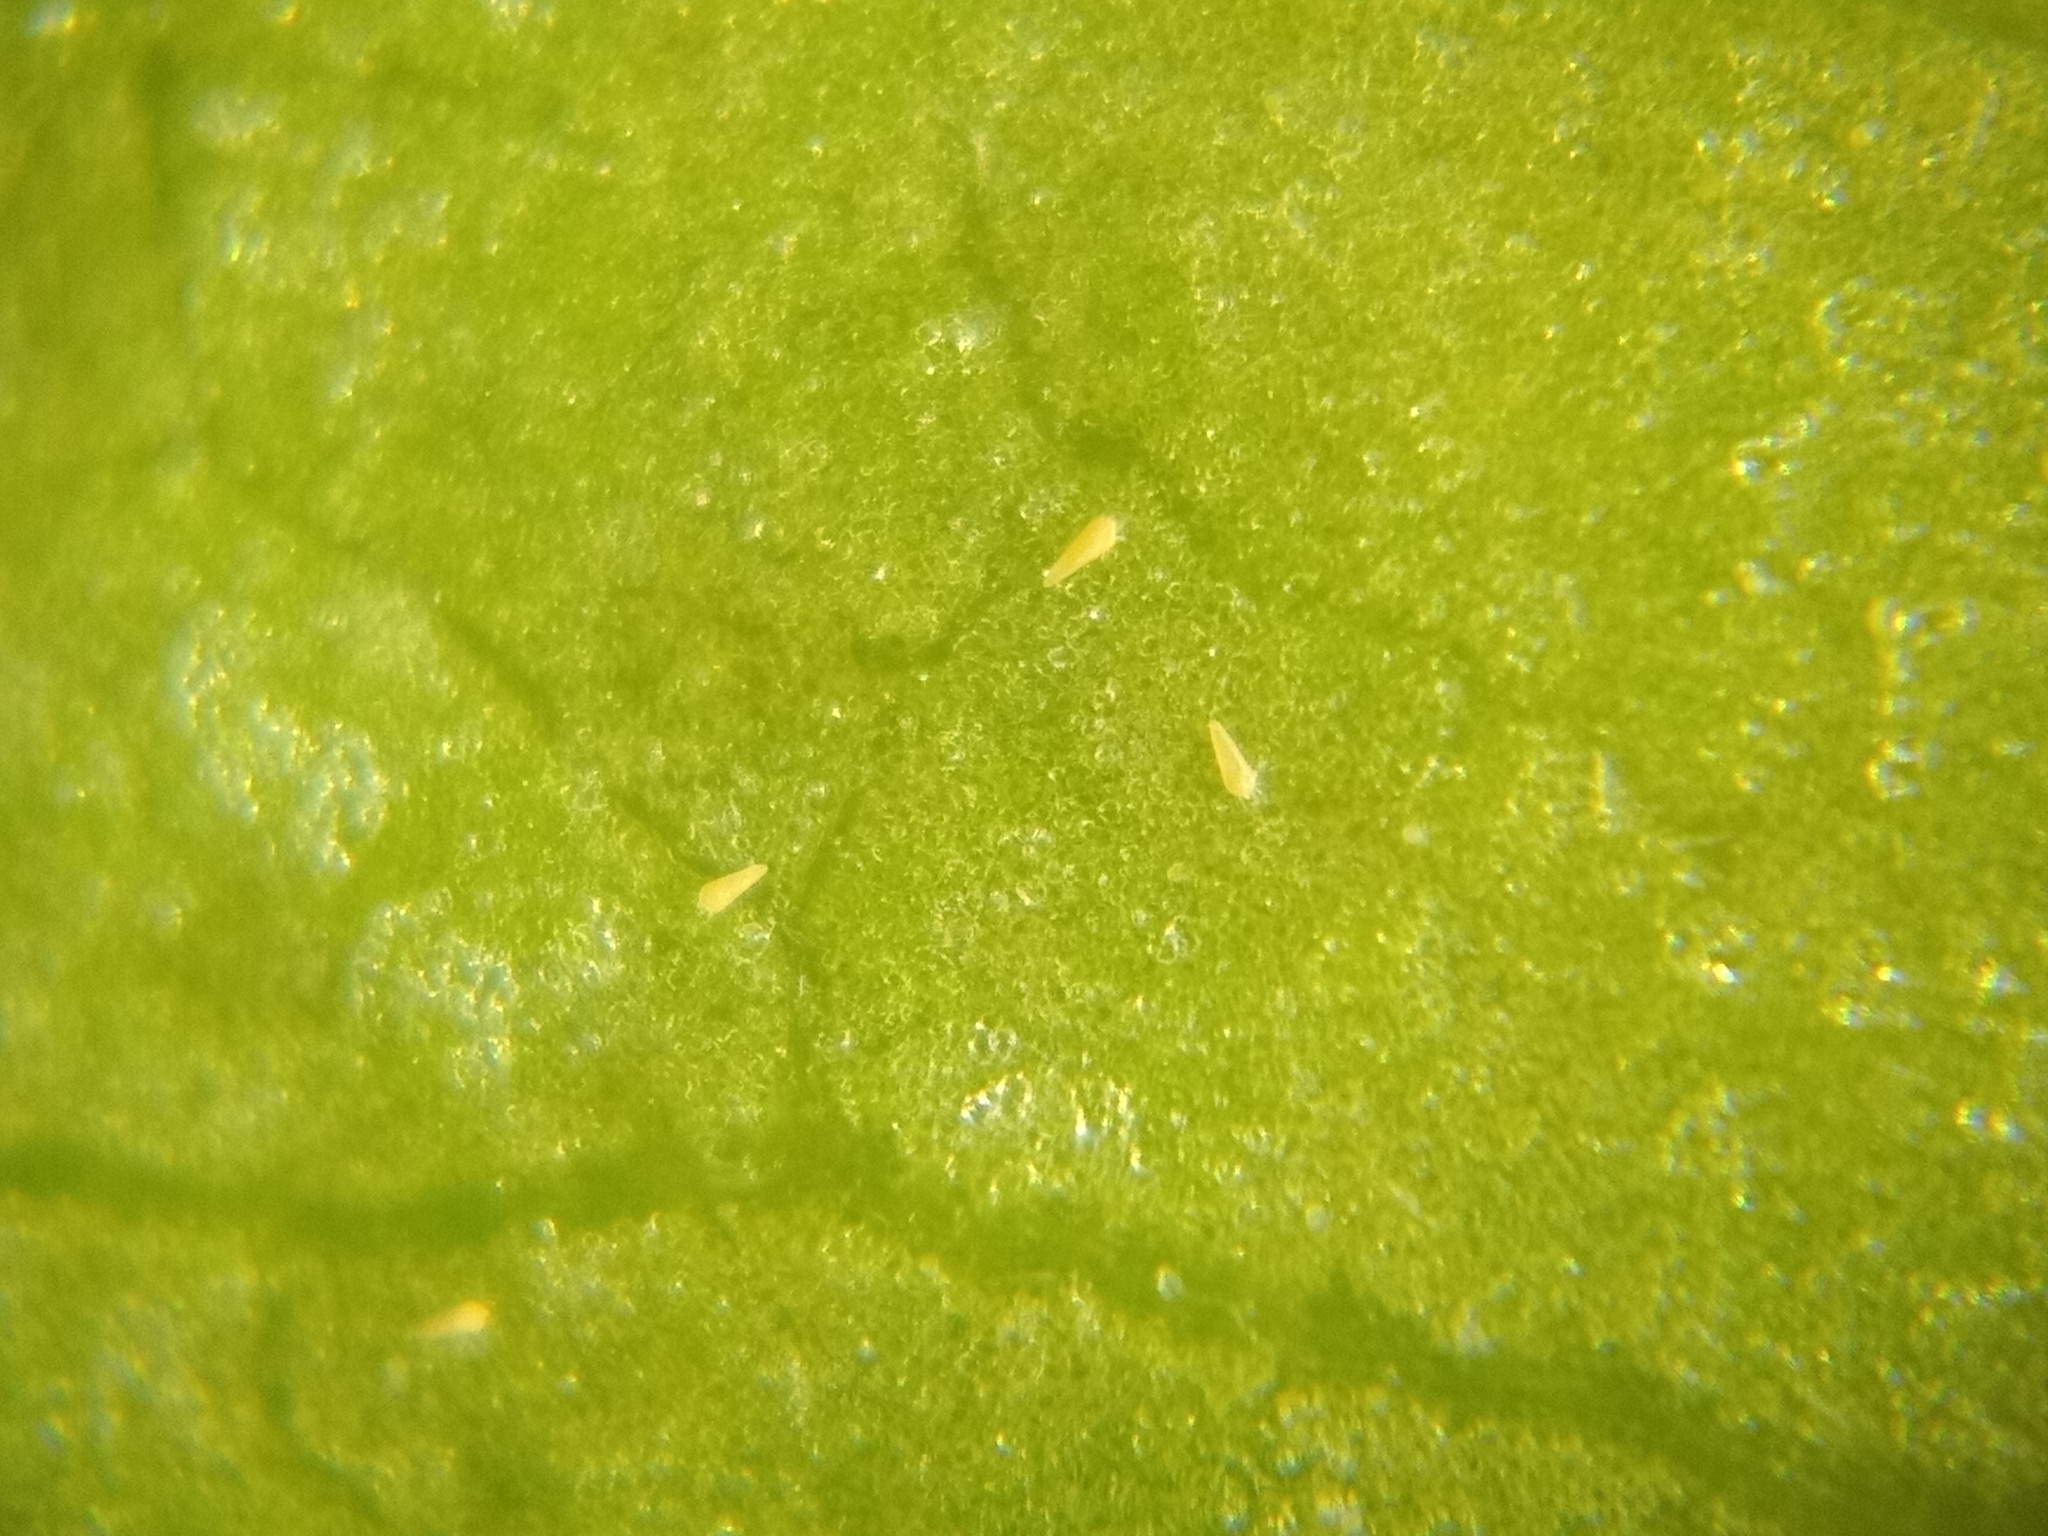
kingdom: Animalia
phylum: Arthropoda
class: Arachnida
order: Trombidiformes
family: Eriophyidae
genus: Phyllocoptruta
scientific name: Phyllocoptruta oleivora
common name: Citrus rust mite
